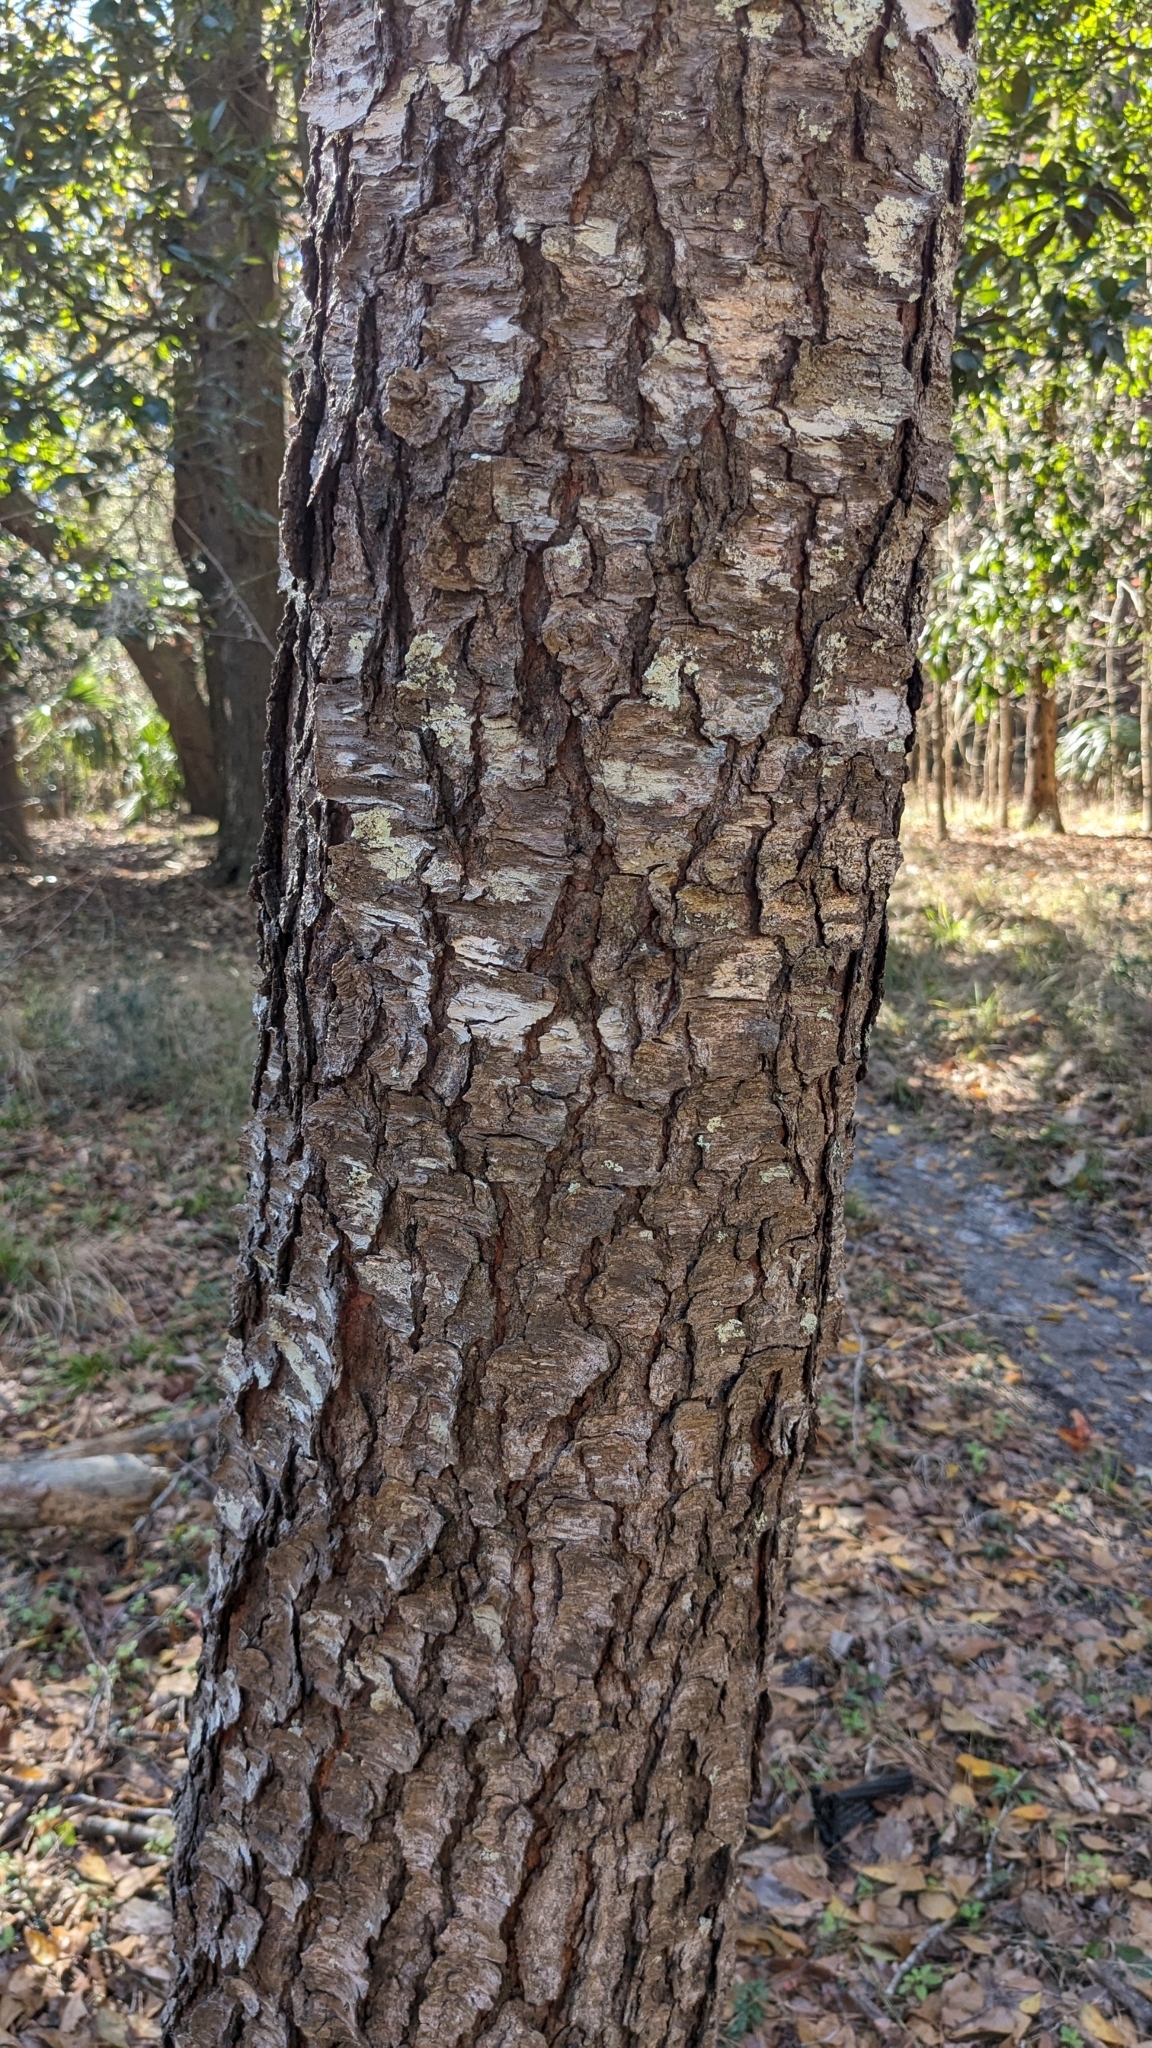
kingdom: Plantae
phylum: Tracheophyta
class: Magnoliopsida
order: Rosales
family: Rosaceae
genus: Prunus
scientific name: Prunus serotina
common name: Black cherry
